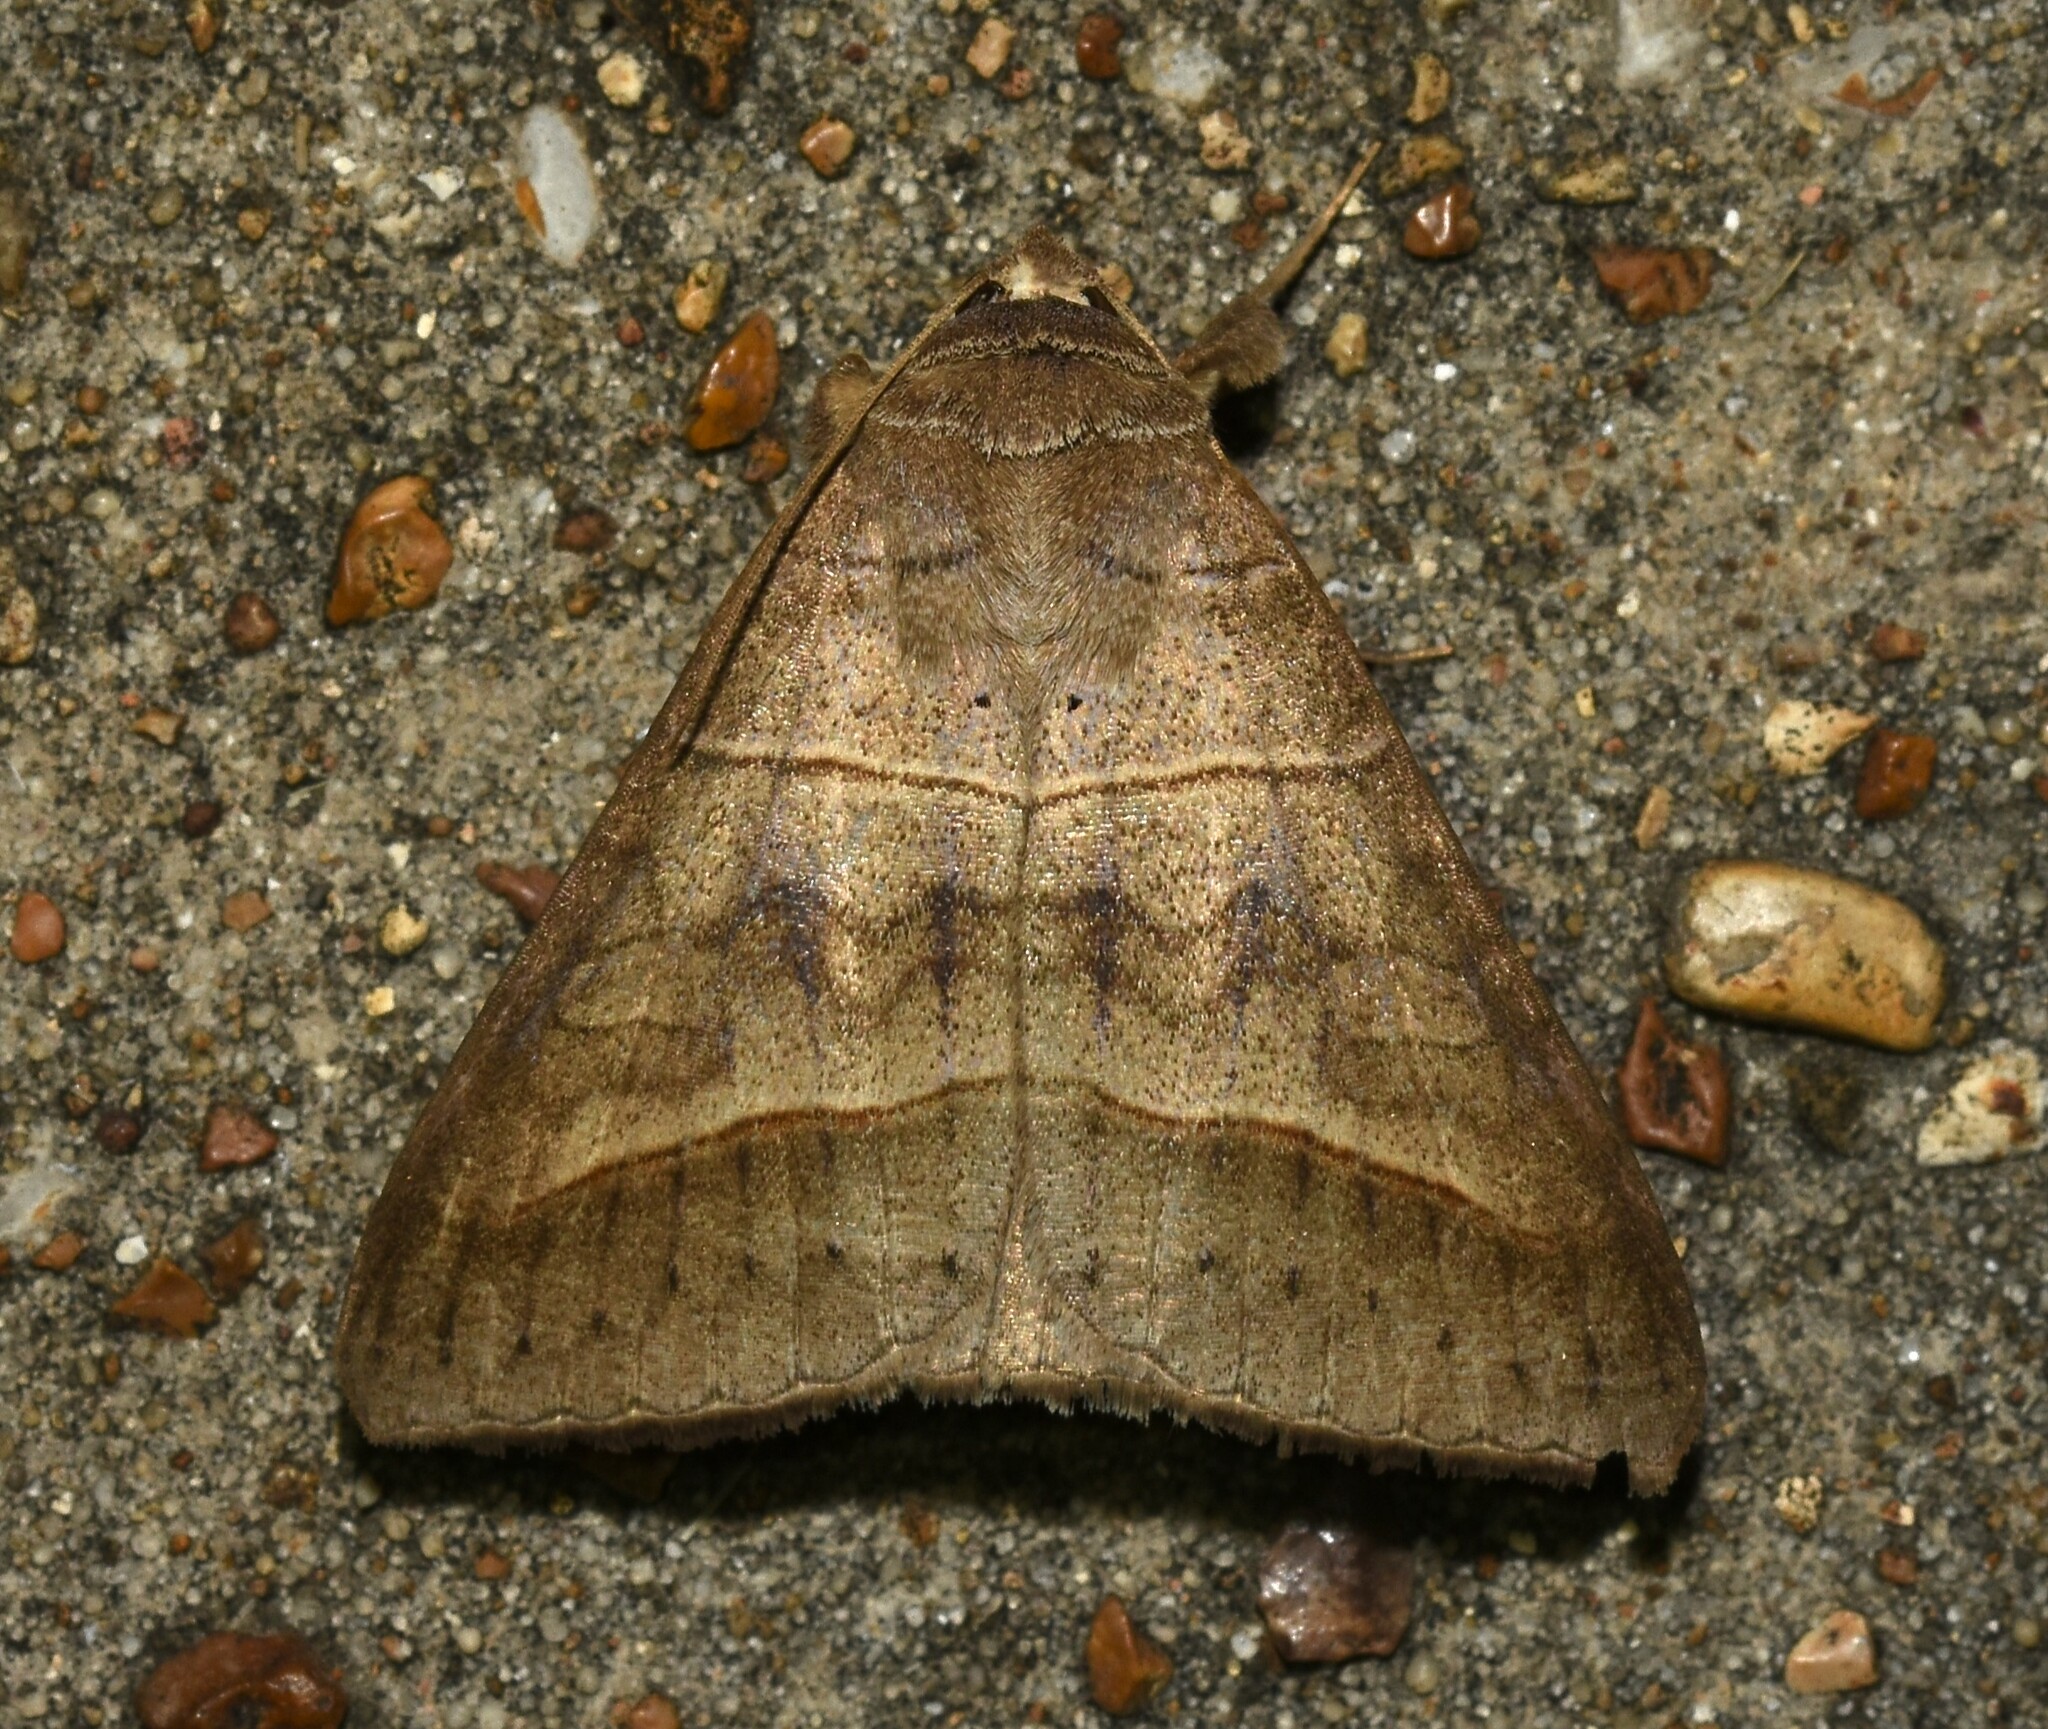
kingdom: Animalia
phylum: Arthropoda
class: Insecta
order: Lepidoptera
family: Erebidae
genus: Mocis
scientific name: Mocis texana
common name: Texas mocis moth
